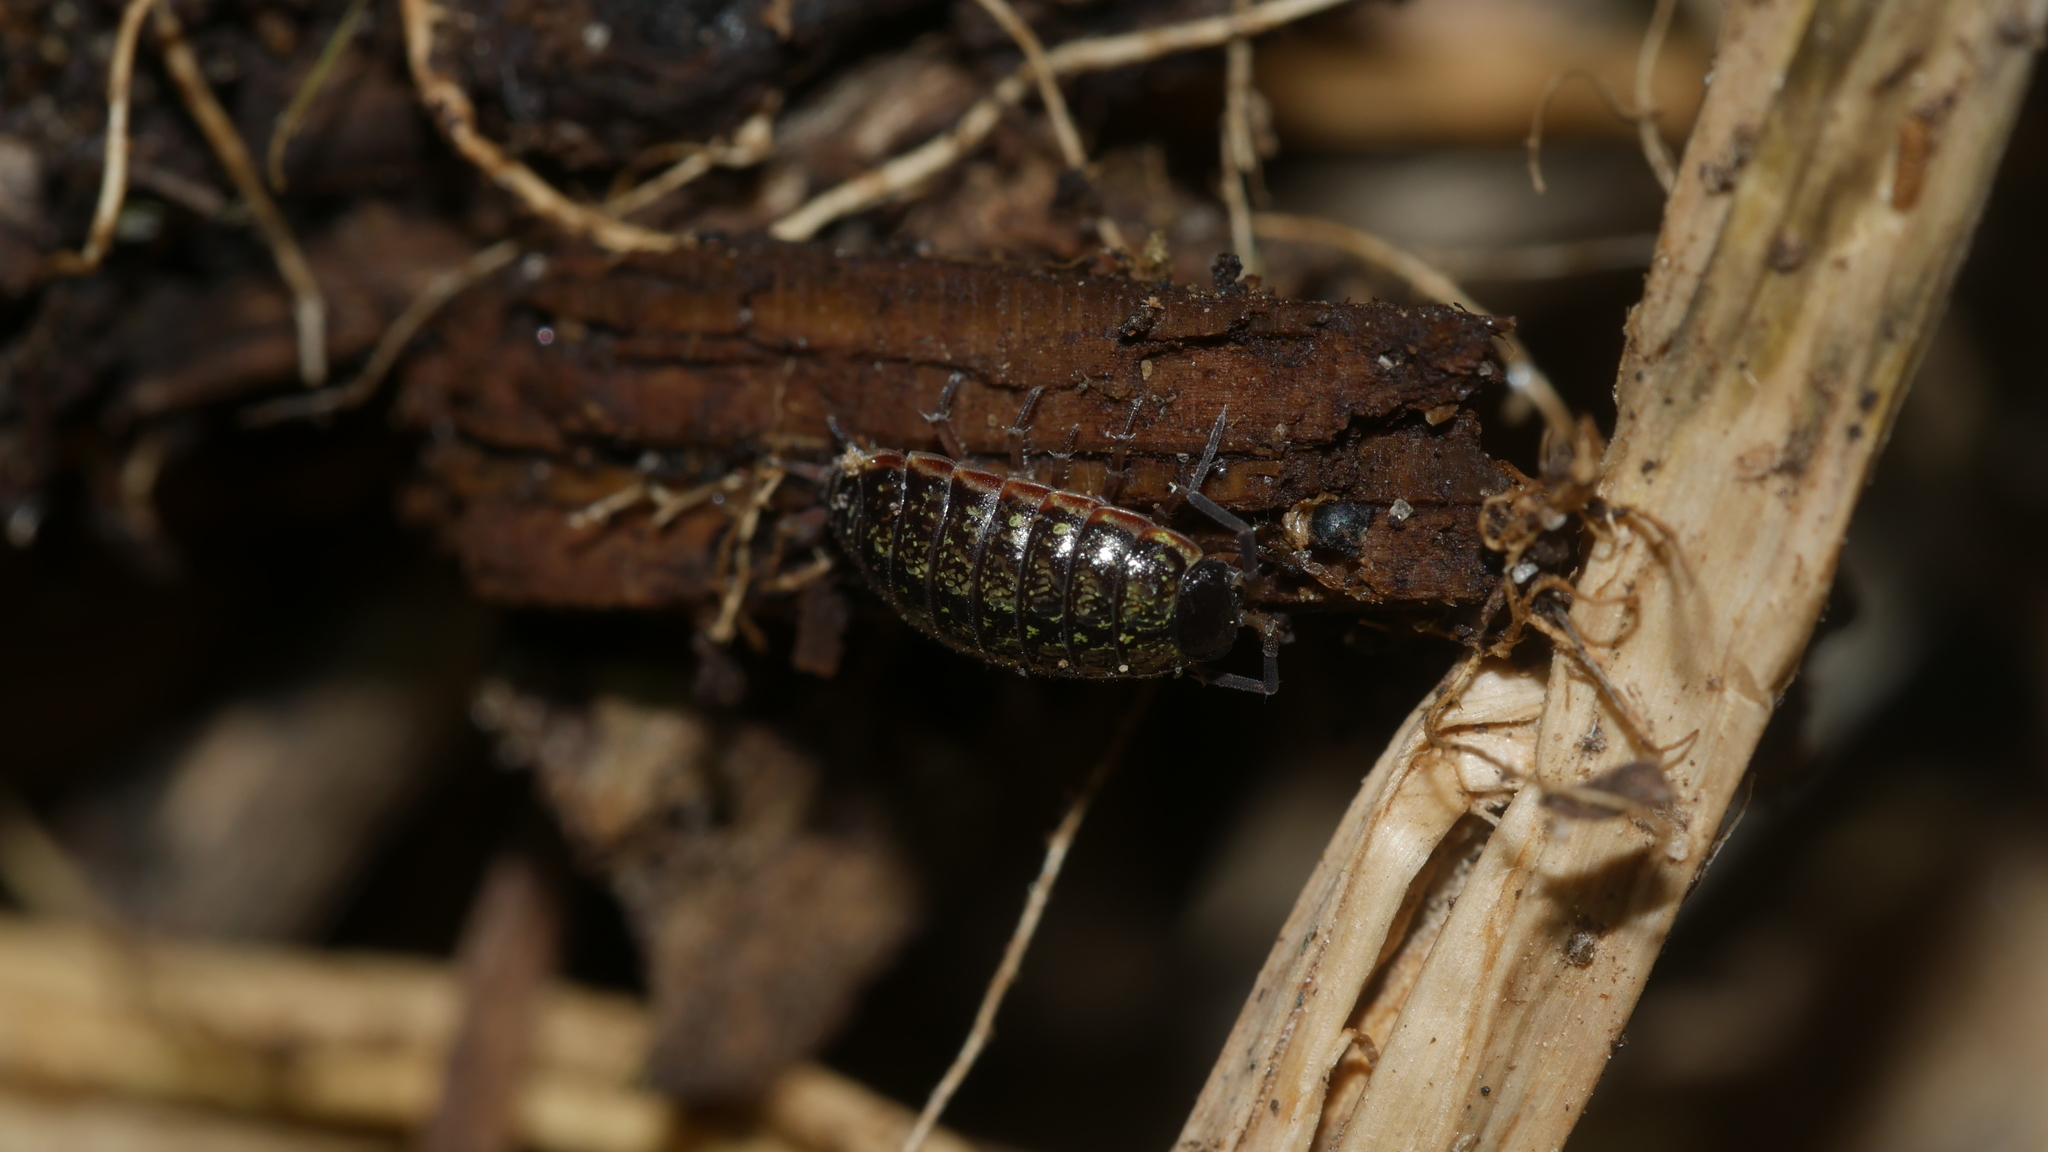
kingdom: Animalia
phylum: Arthropoda
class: Malacostraca
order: Isopoda
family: Philosciidae
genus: Philoscia
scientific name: Philoscia muscorum
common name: Common striped woodlouse
